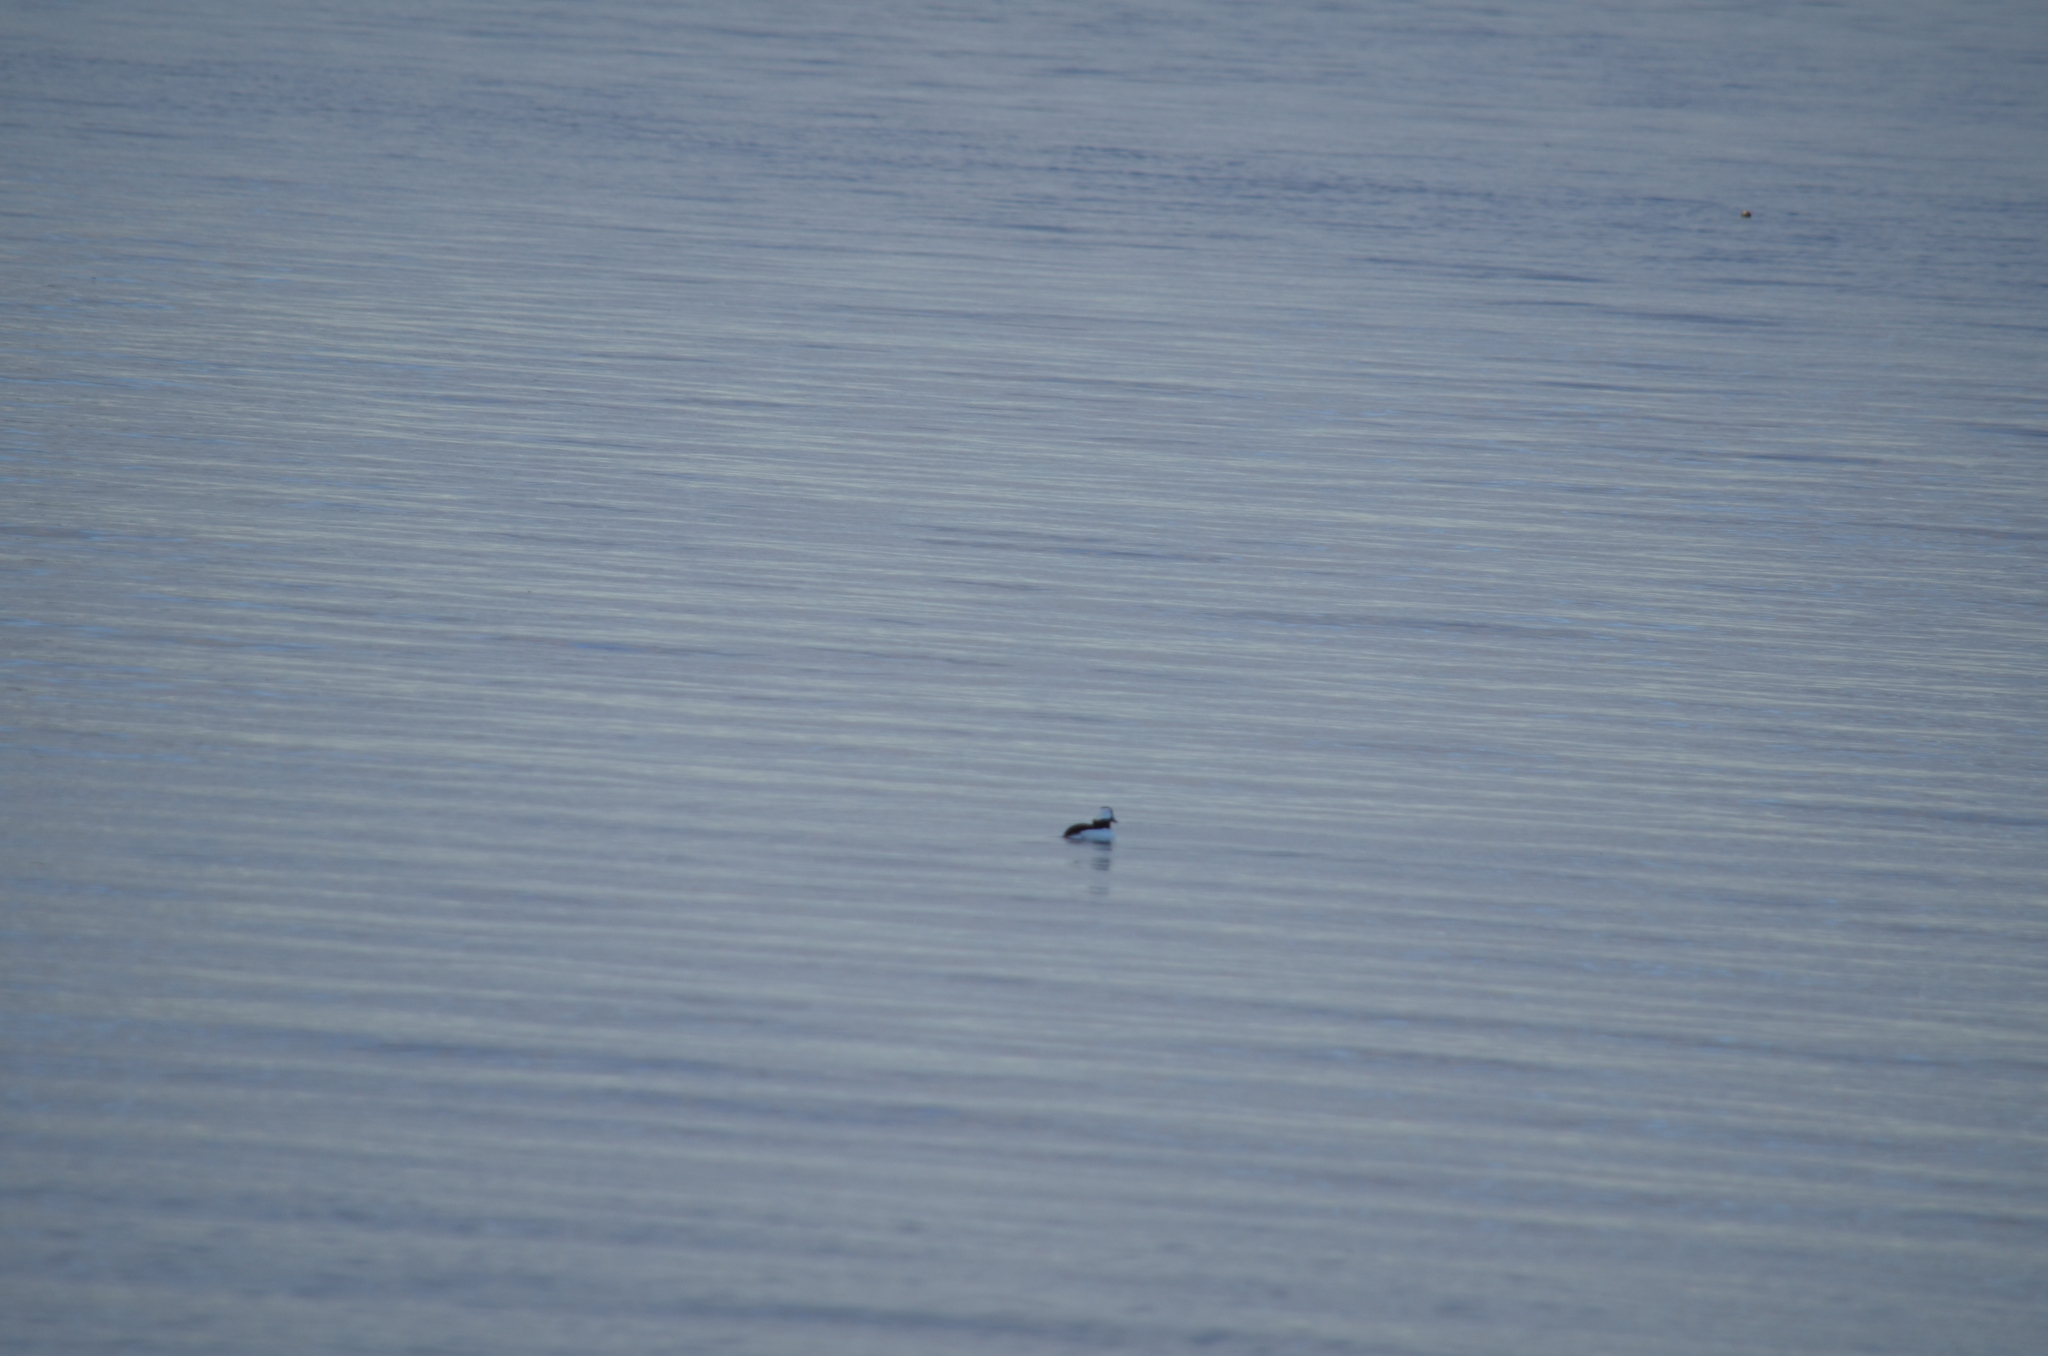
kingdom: Animalia
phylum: Chordata
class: Aves
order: Anseriformes
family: Anatidae
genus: Bucephala
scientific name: Bucephala albeola
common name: Bufflehead
